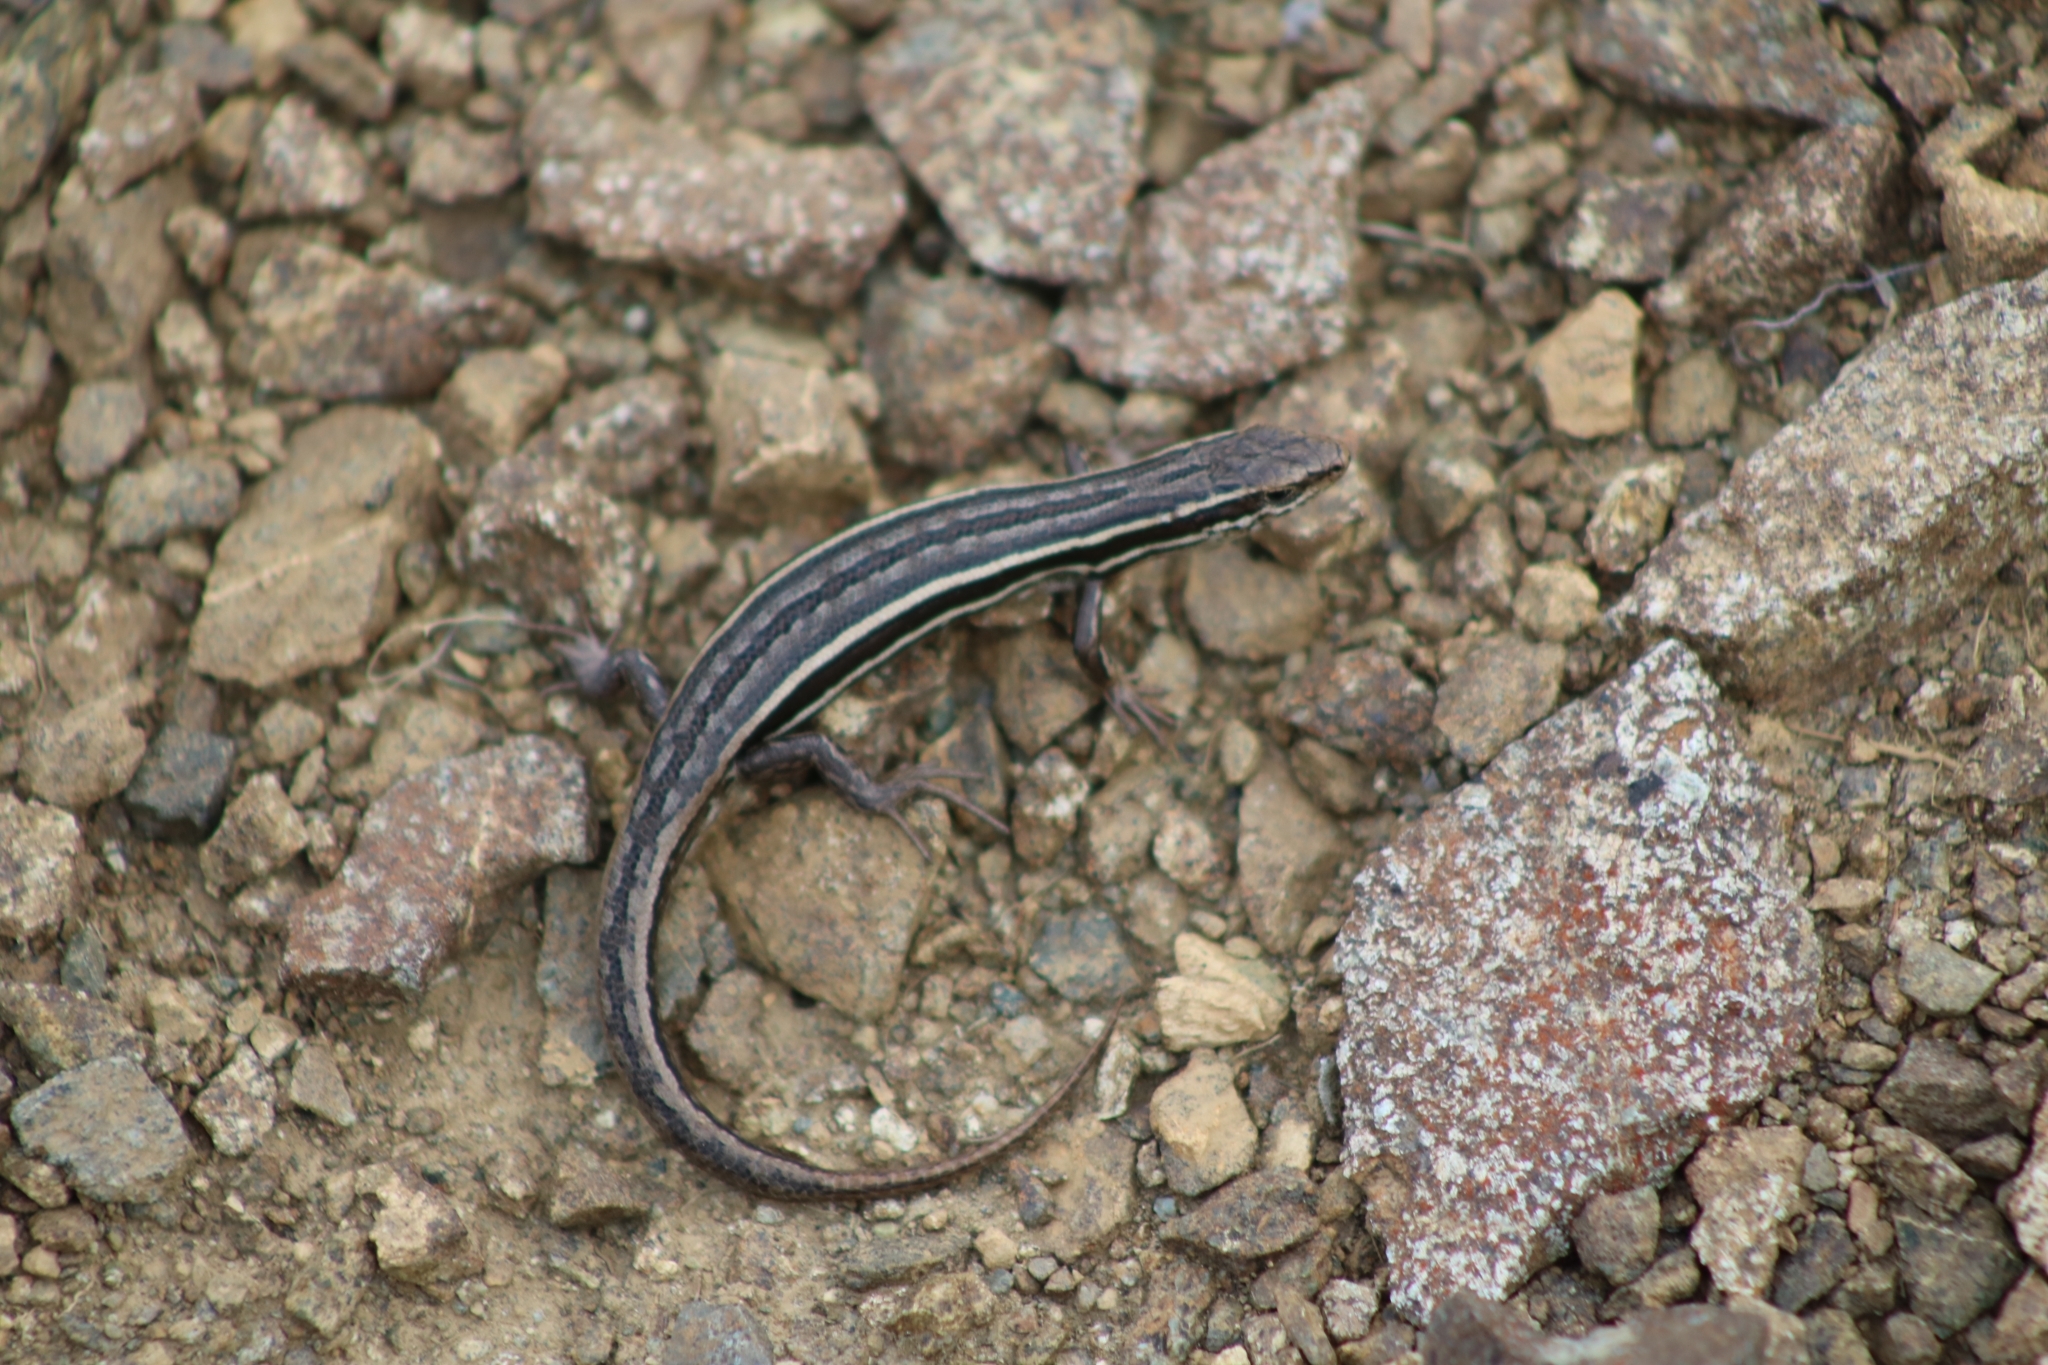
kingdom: Animalia
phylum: Chordata
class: Squamata
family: Scincidae
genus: Oligosoma
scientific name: Oligosoma maccanni
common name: Mccann’s skink
